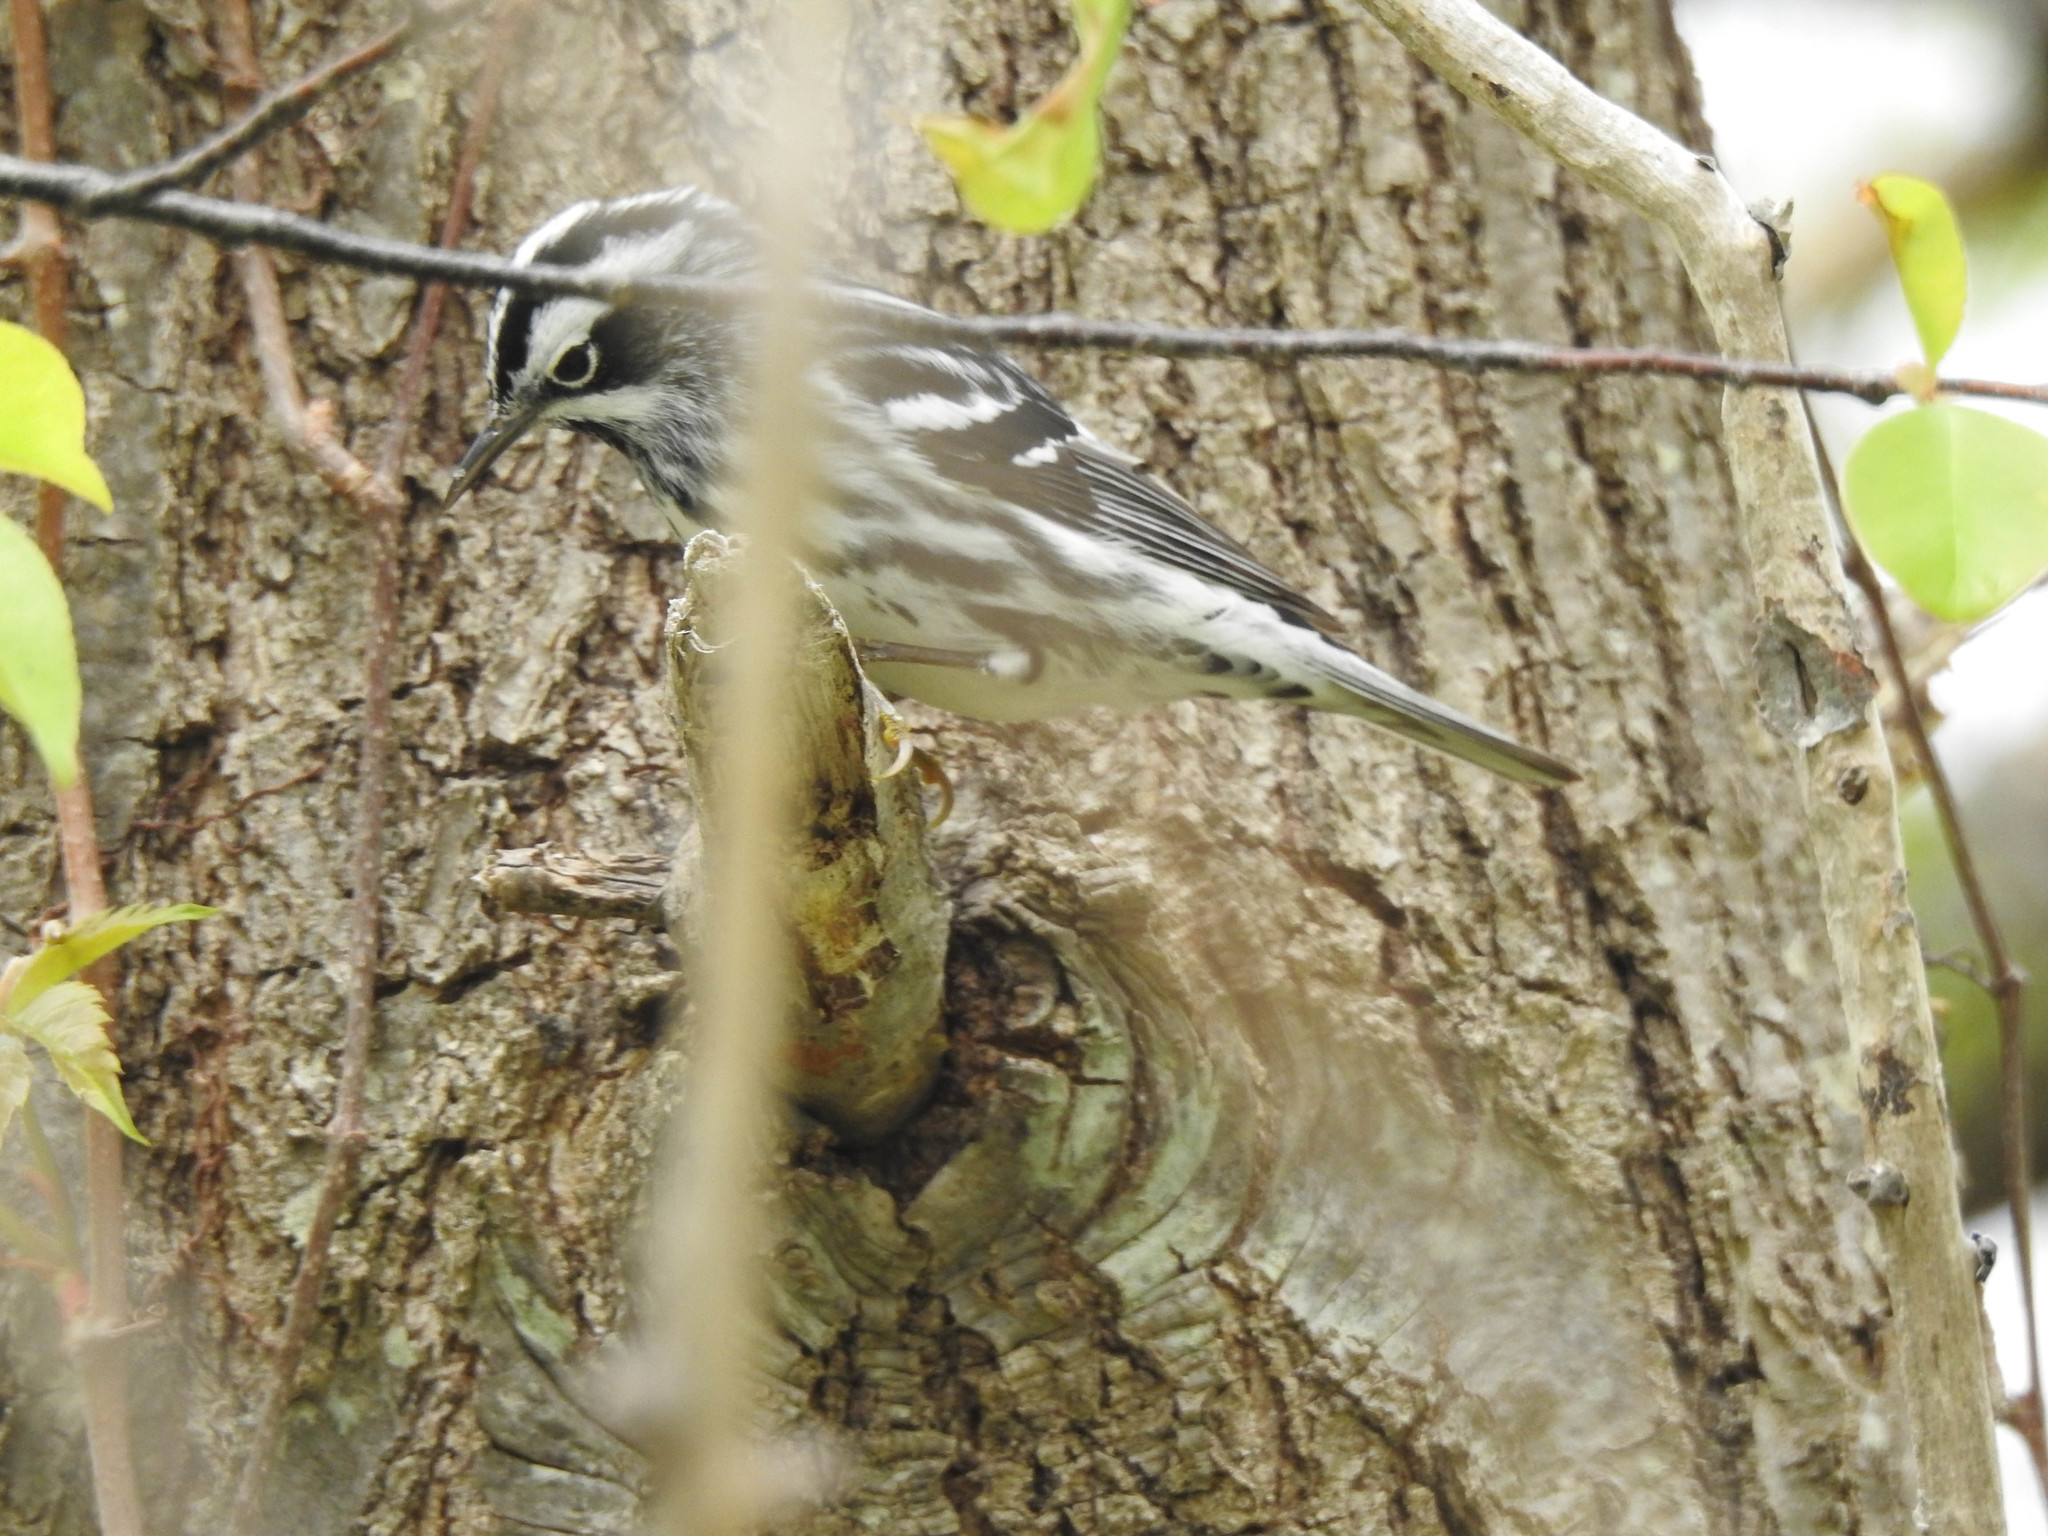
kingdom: Animalia
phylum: Chordata
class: Aves
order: Passeriformes
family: Parulidae
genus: Mniotilta
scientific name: Mniotilta varia
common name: Black-and-white warbler
